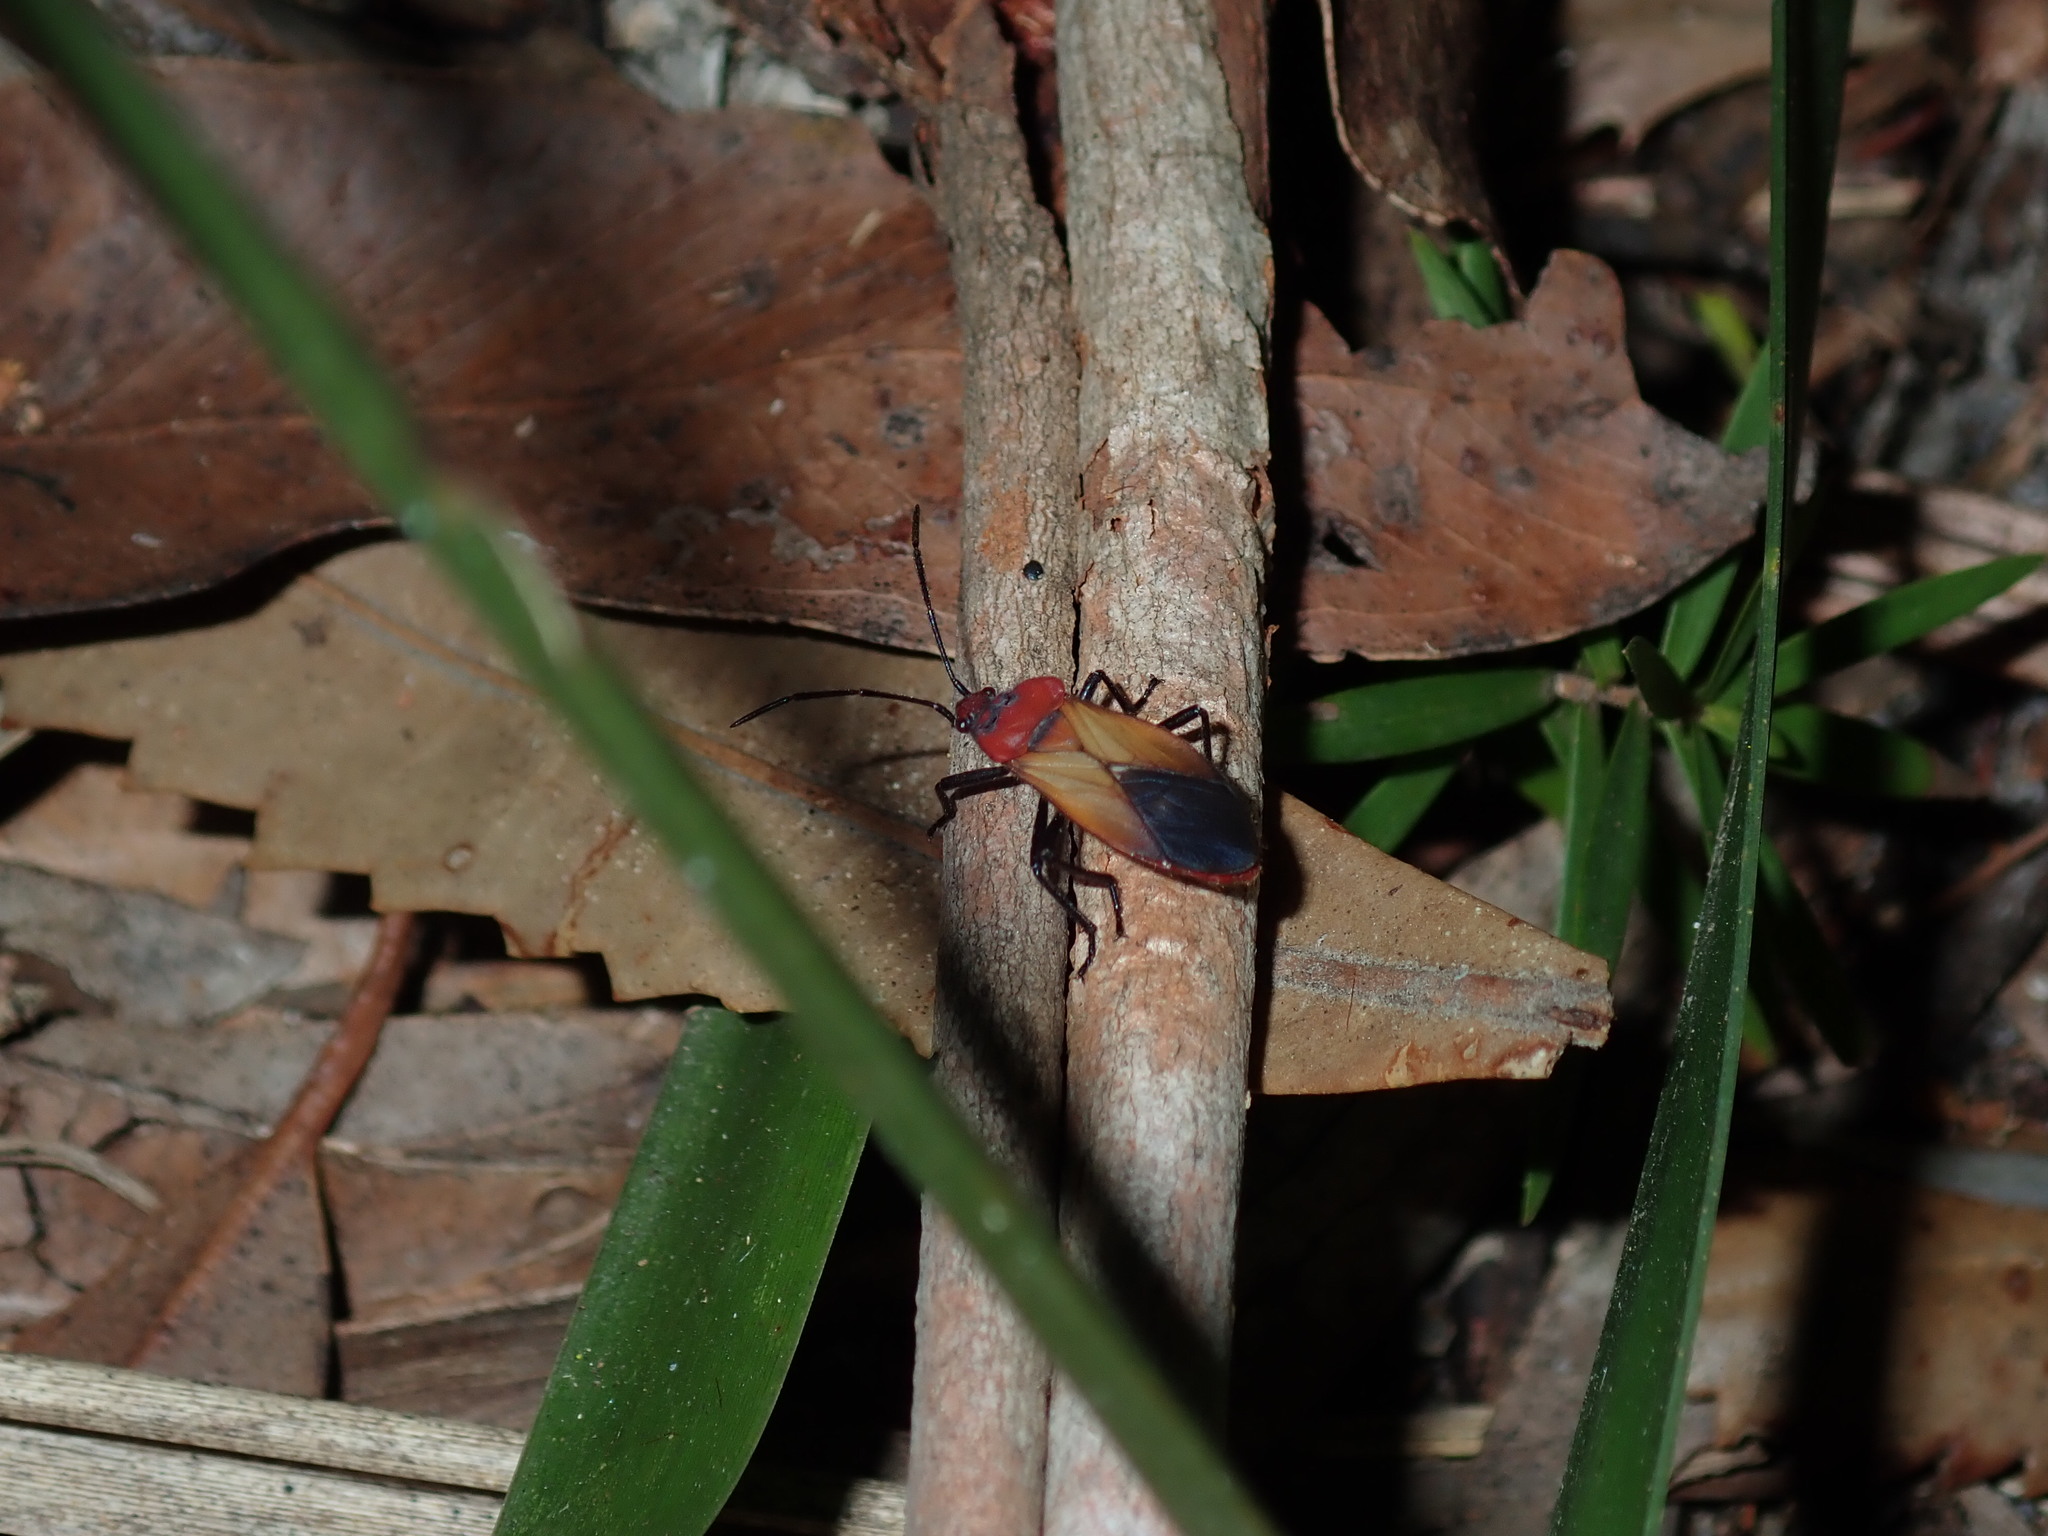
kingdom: Animalia
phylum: Arthropoda
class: Insecta
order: Hemiptera
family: Lygaeidae
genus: Oncopeltus
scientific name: Oncopeltus sordidus
